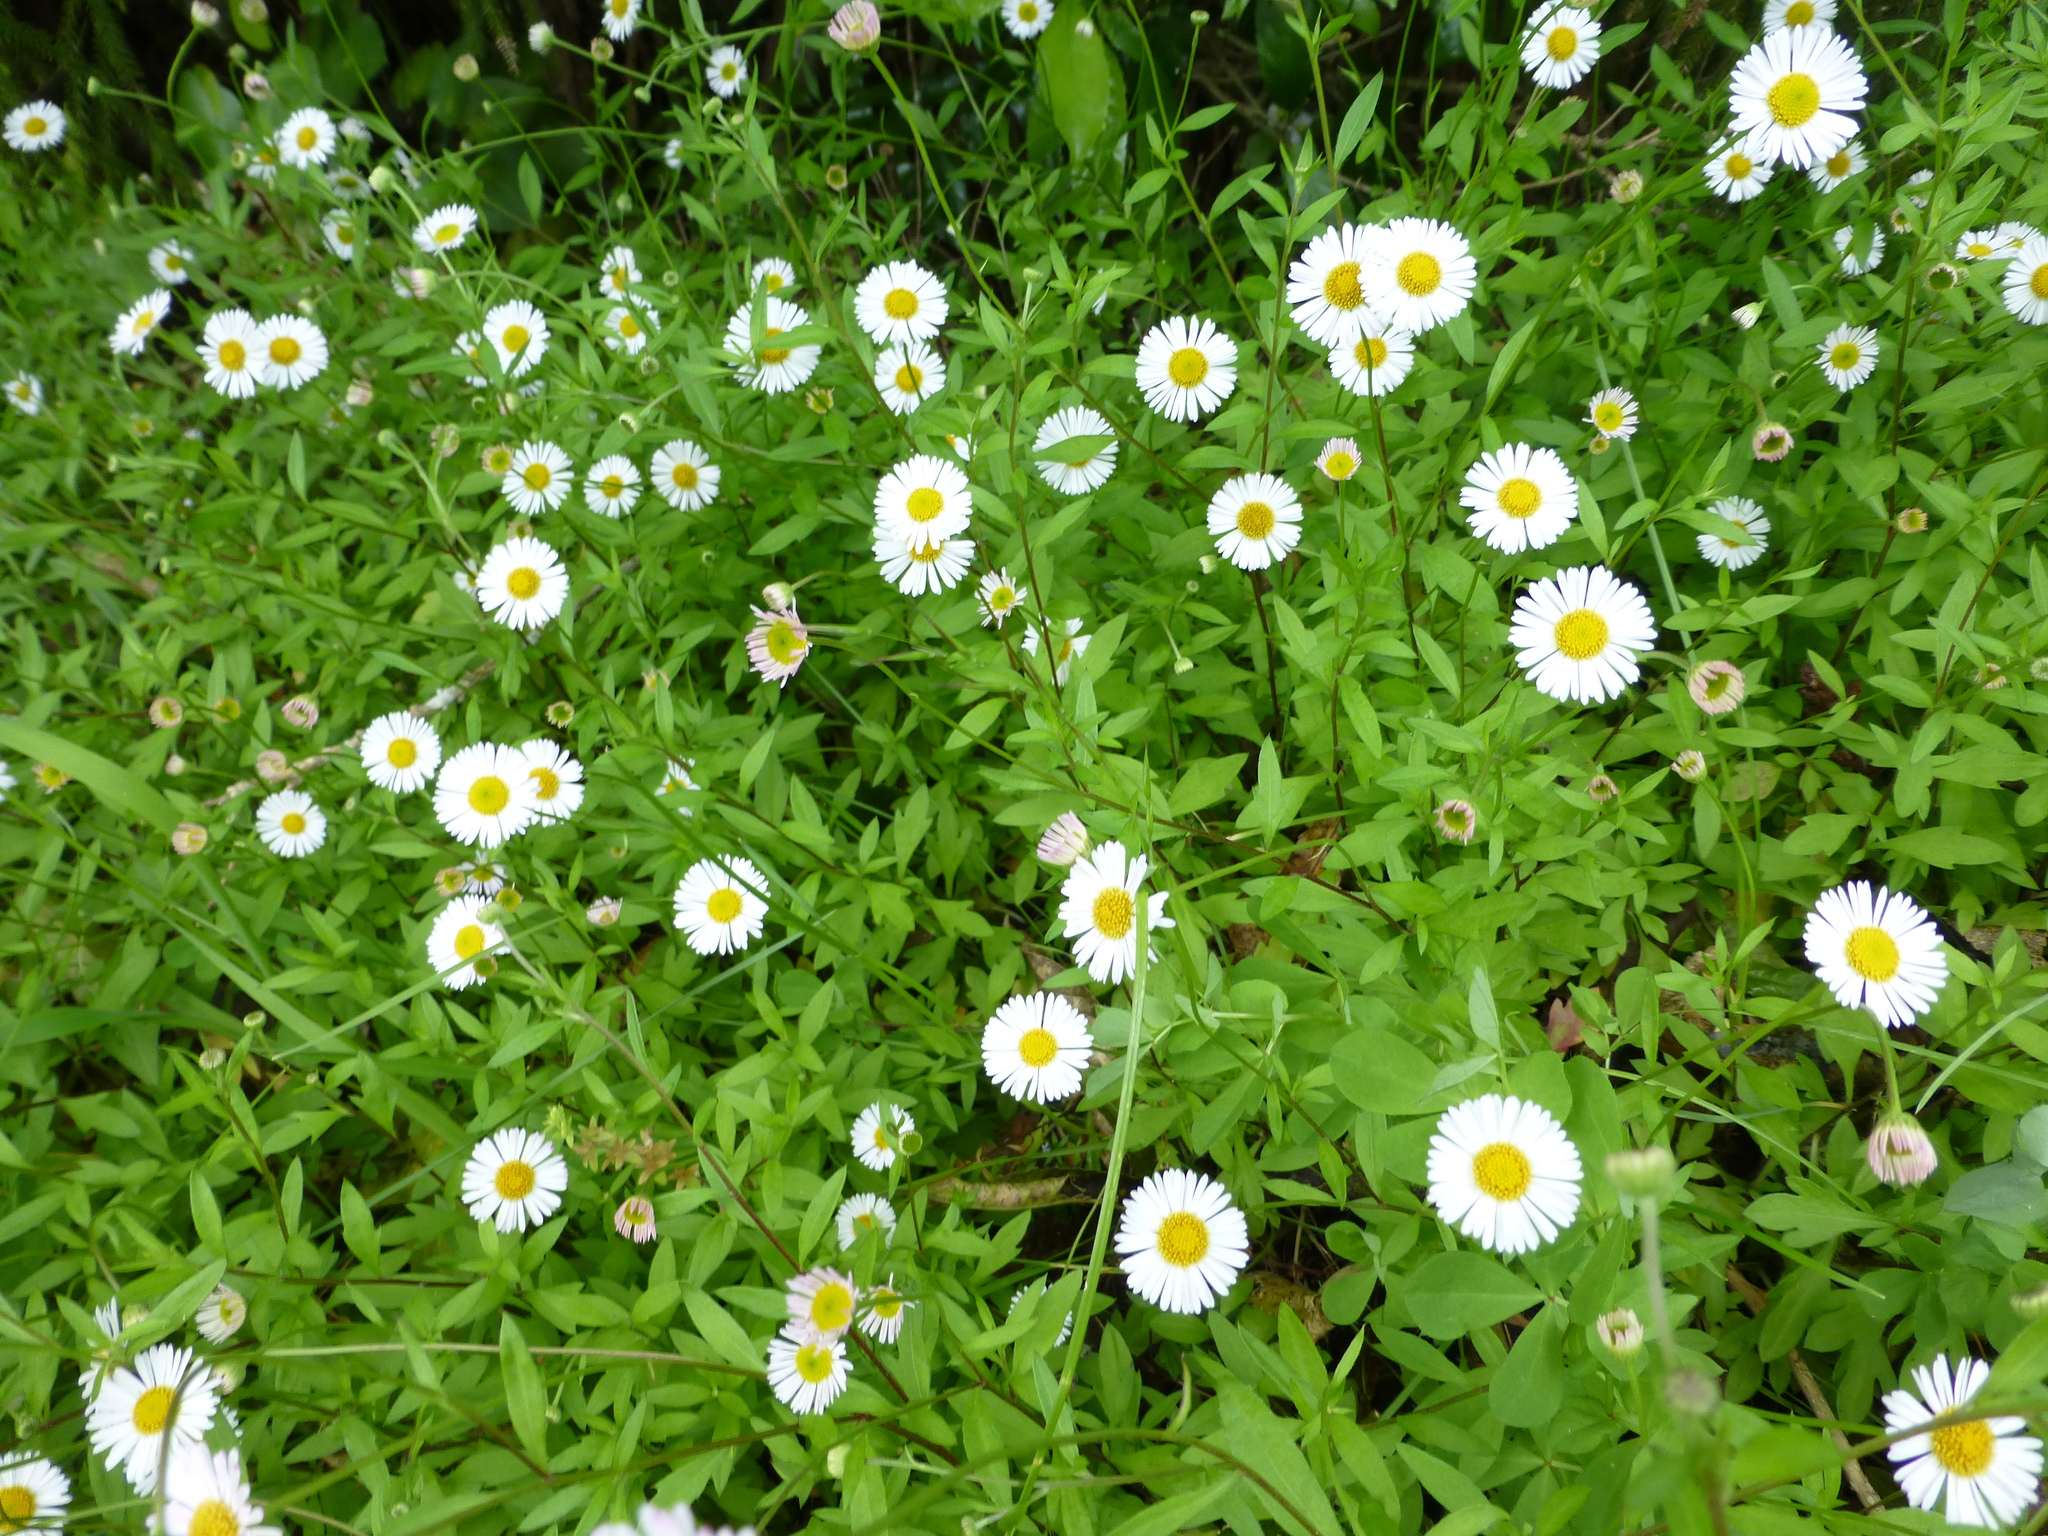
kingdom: Plantae
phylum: Tracheophyta
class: Magnoliopsida
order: Asterales
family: Asteraceae
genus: Erigeron
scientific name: Erigeron karvinskianus
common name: Mexican fleabane
